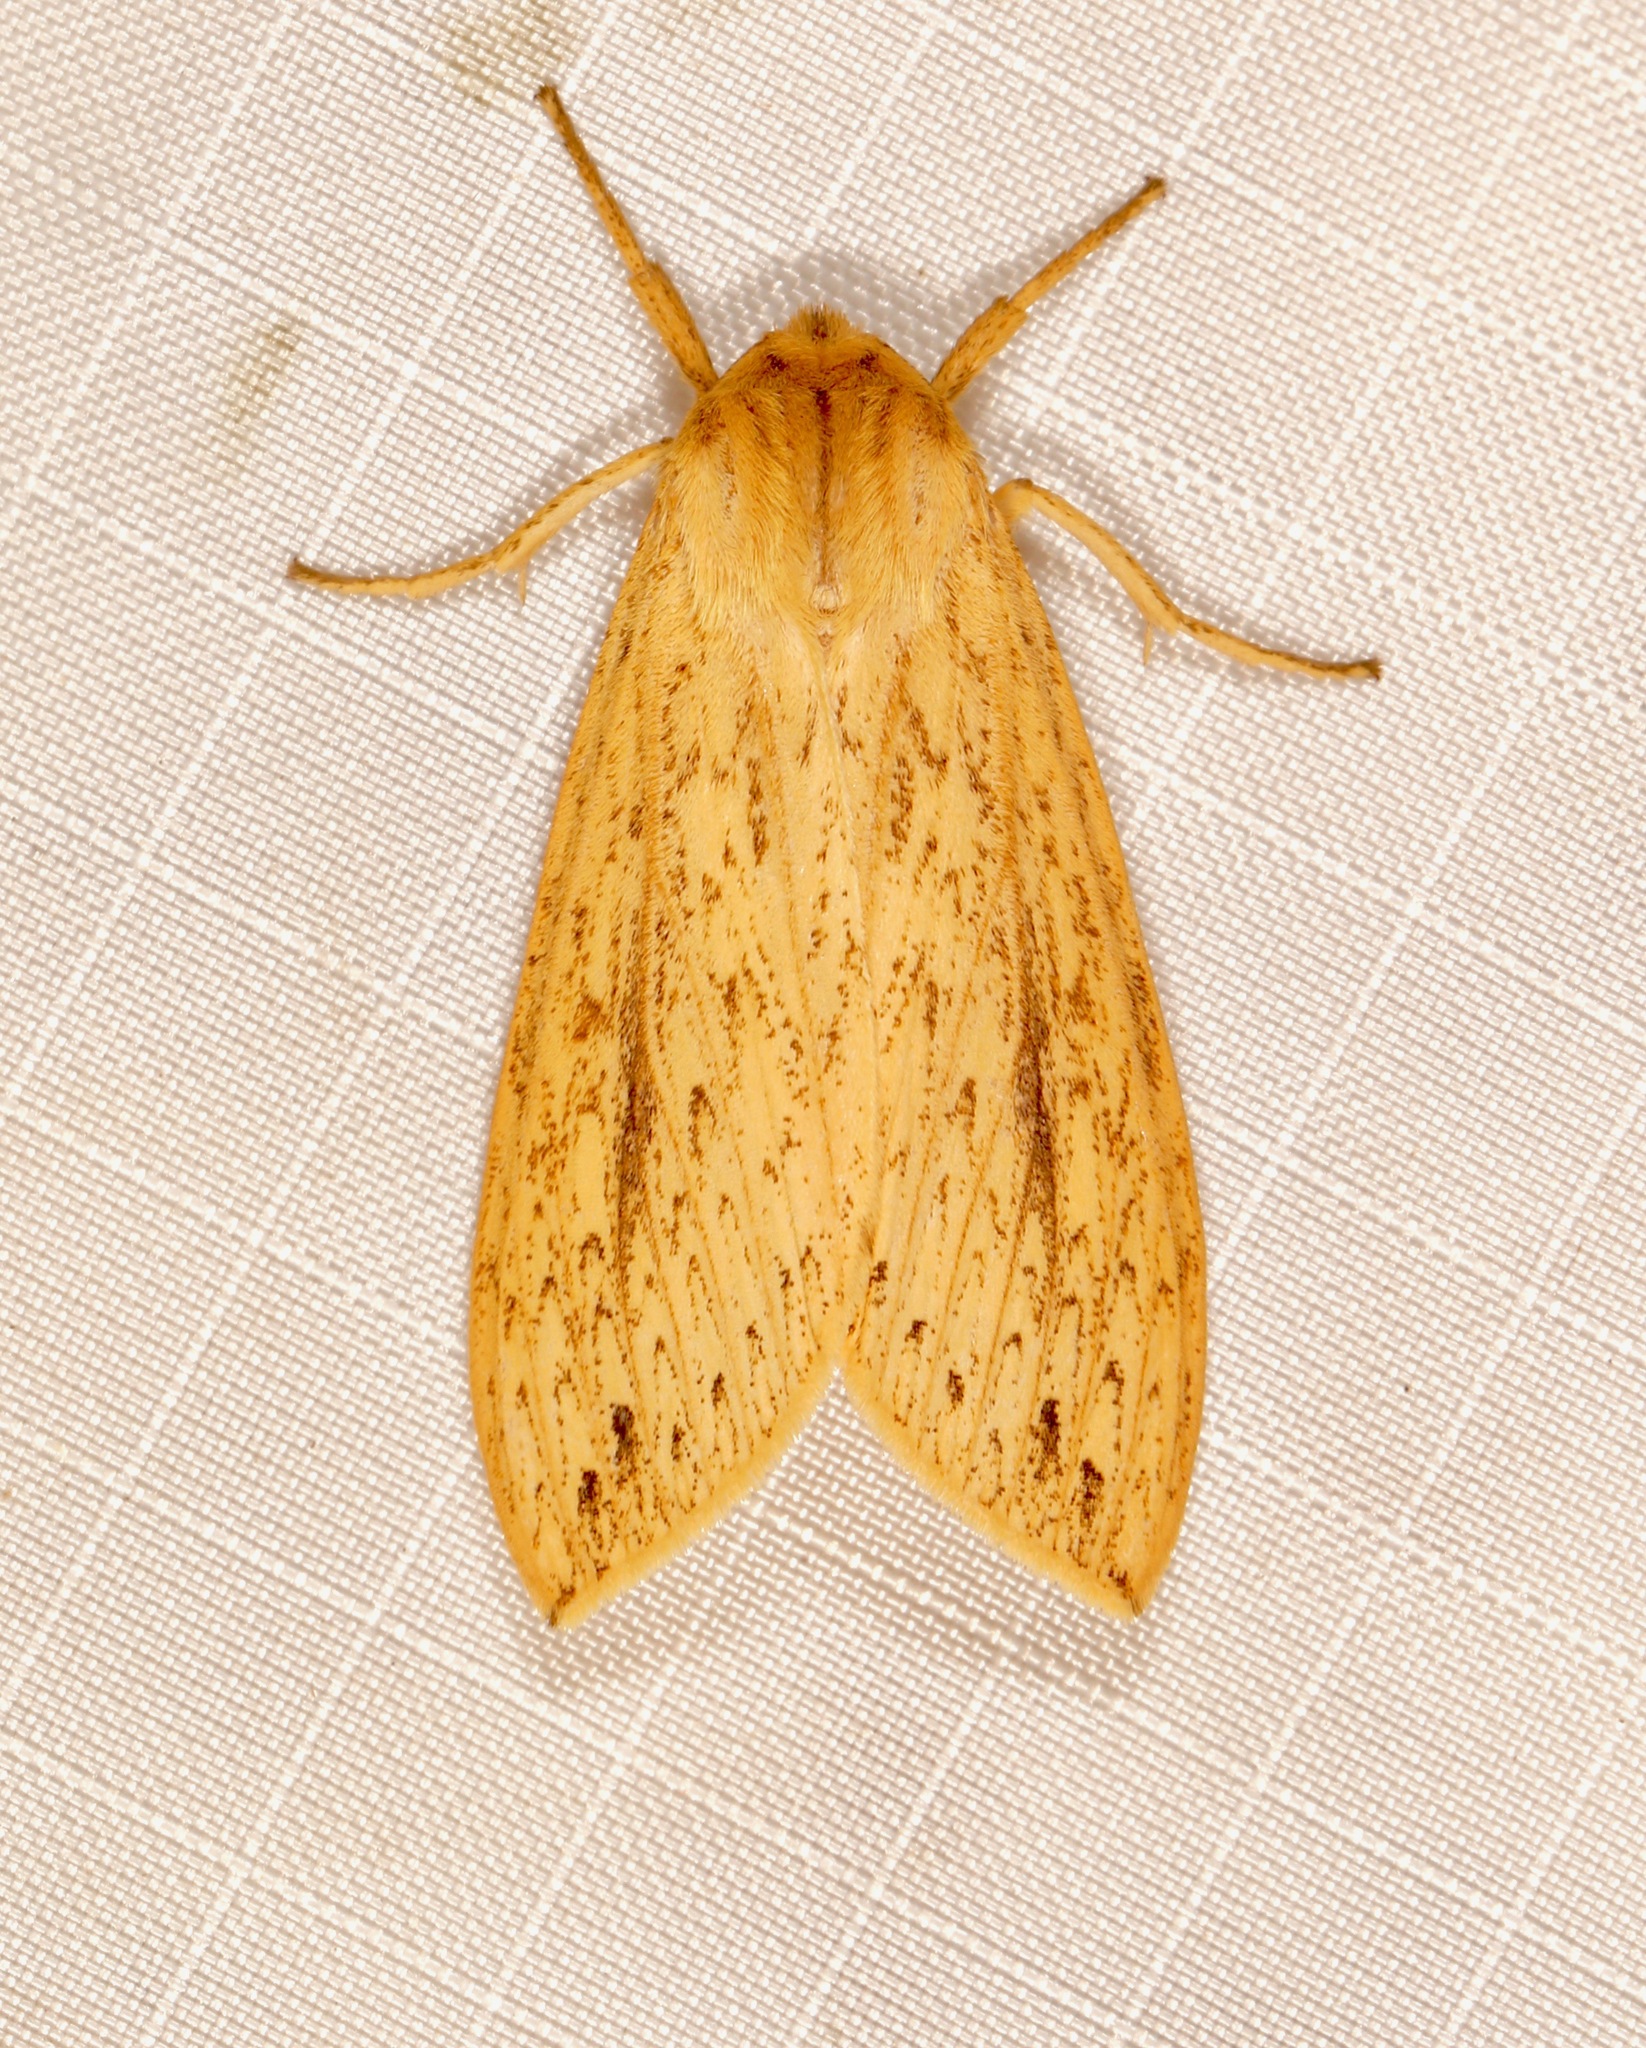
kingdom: Animalia
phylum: Arthropoda
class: Insecta
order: Lepidoptera
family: Erebidae
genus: Leucanopsis
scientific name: Leucanopsis longa
